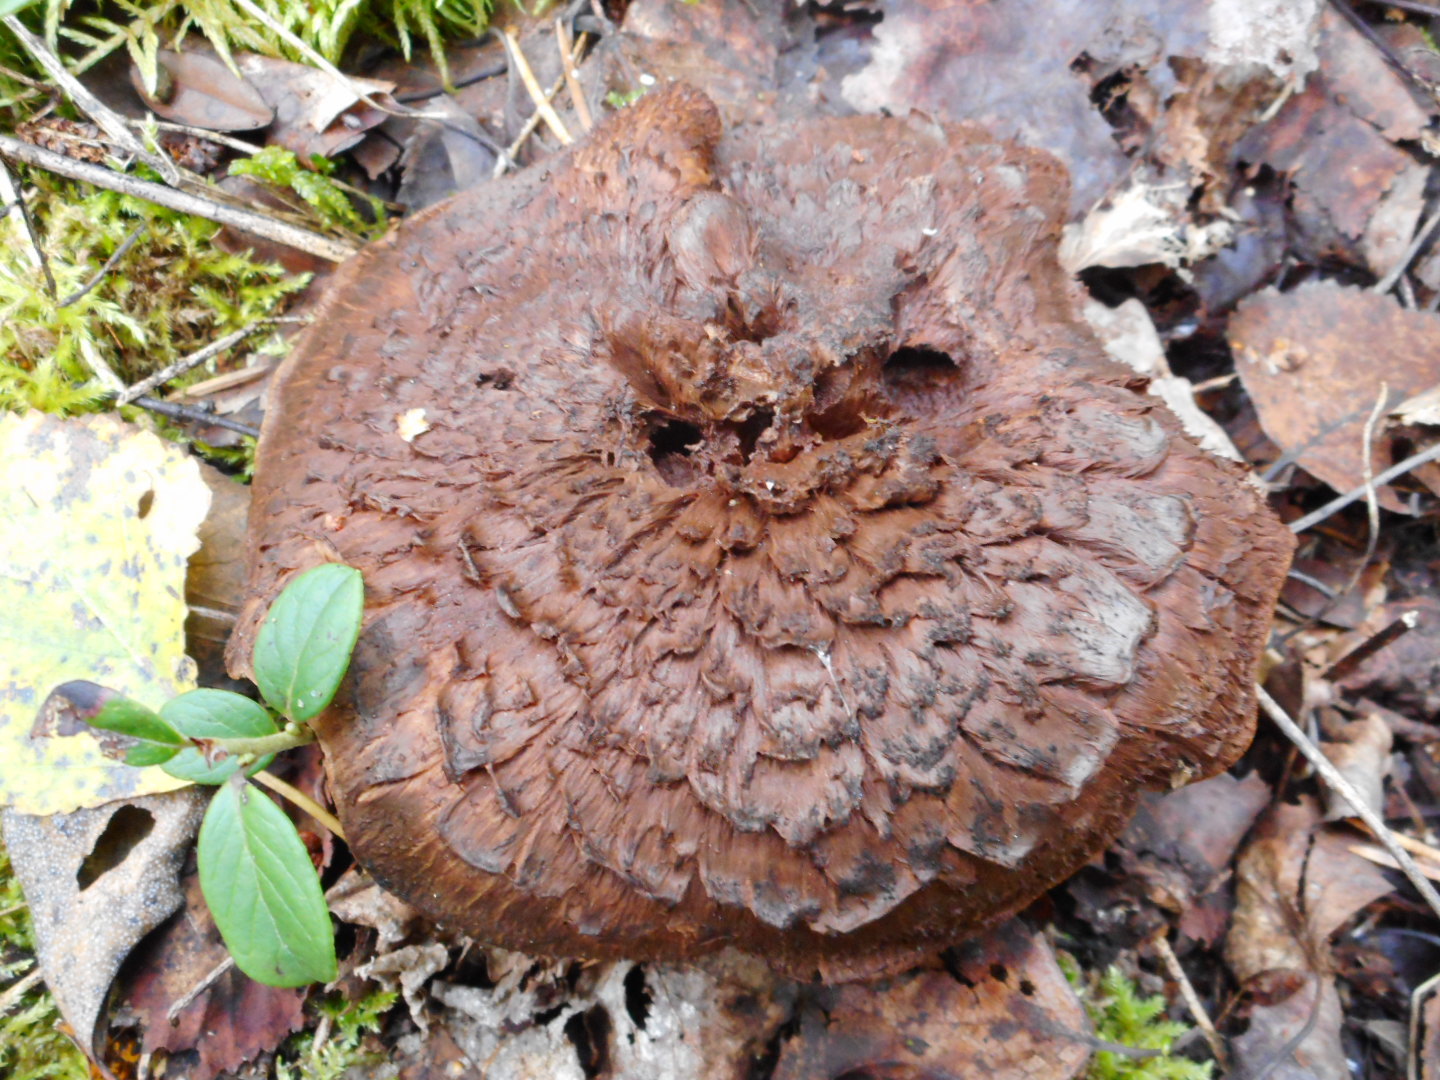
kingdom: Fungi
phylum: Basidiomycota
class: Agaricomycetes
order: Thelephorales
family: Bankeraceae
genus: Hydnellum
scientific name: Hydnellum scabrosum
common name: Bitter tooth
